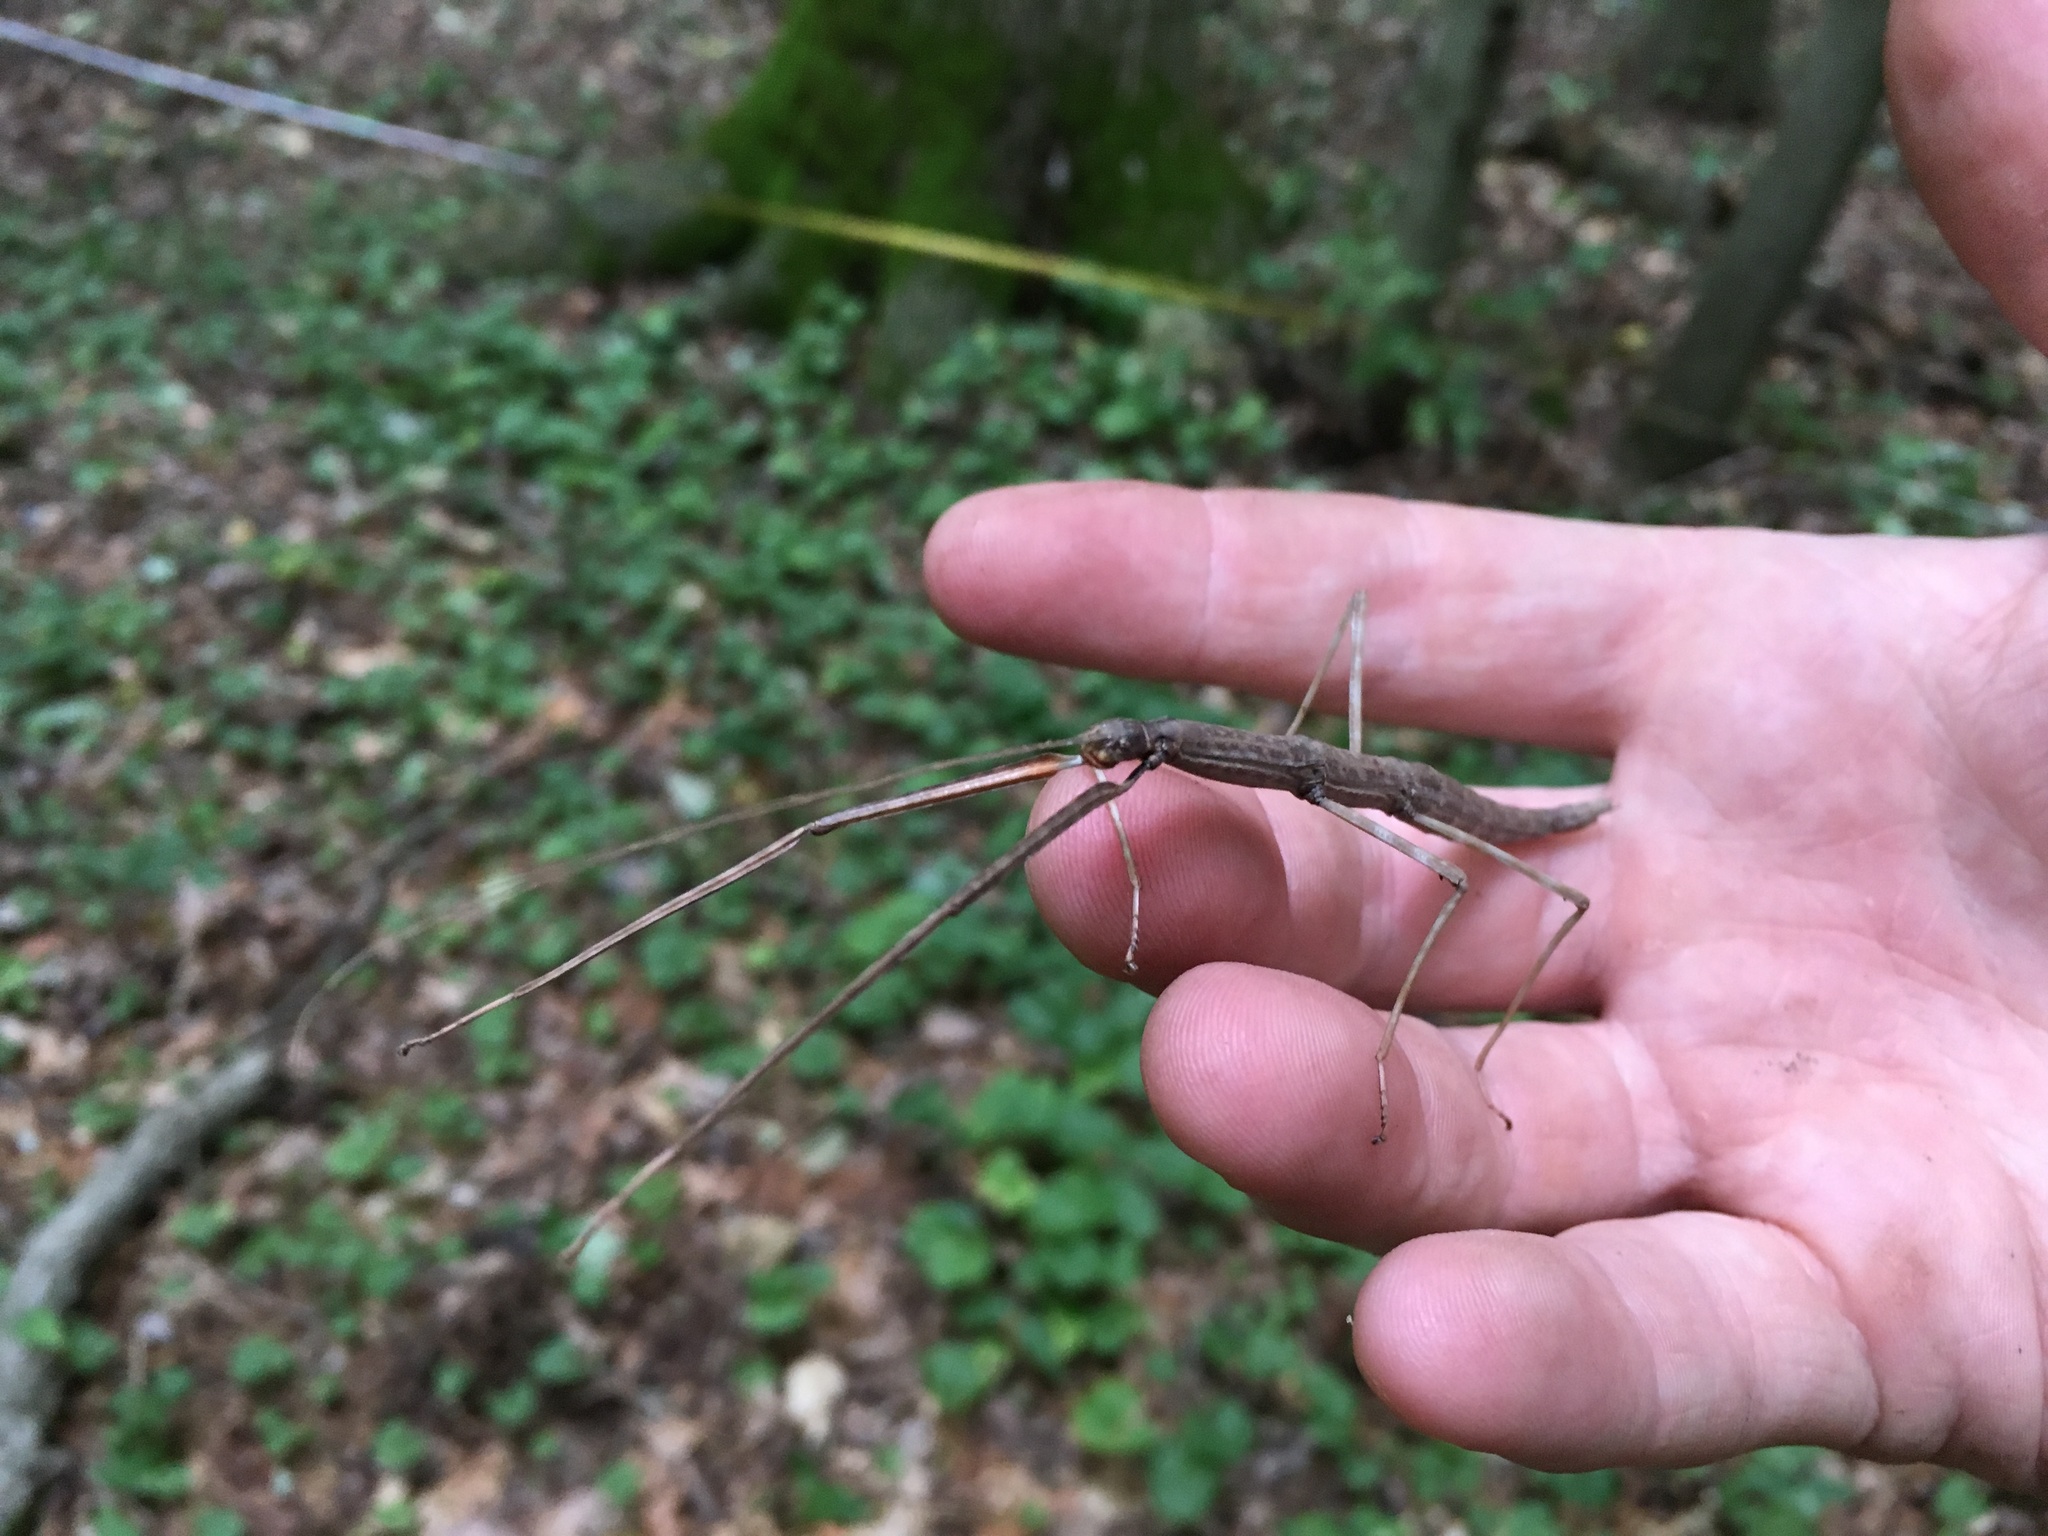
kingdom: Animalia
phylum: Arthropoda
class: Insecta
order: Phasmida
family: Diapheromeridae
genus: Diapheromera
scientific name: Diapheromera femorata
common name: Common american walkingstick
